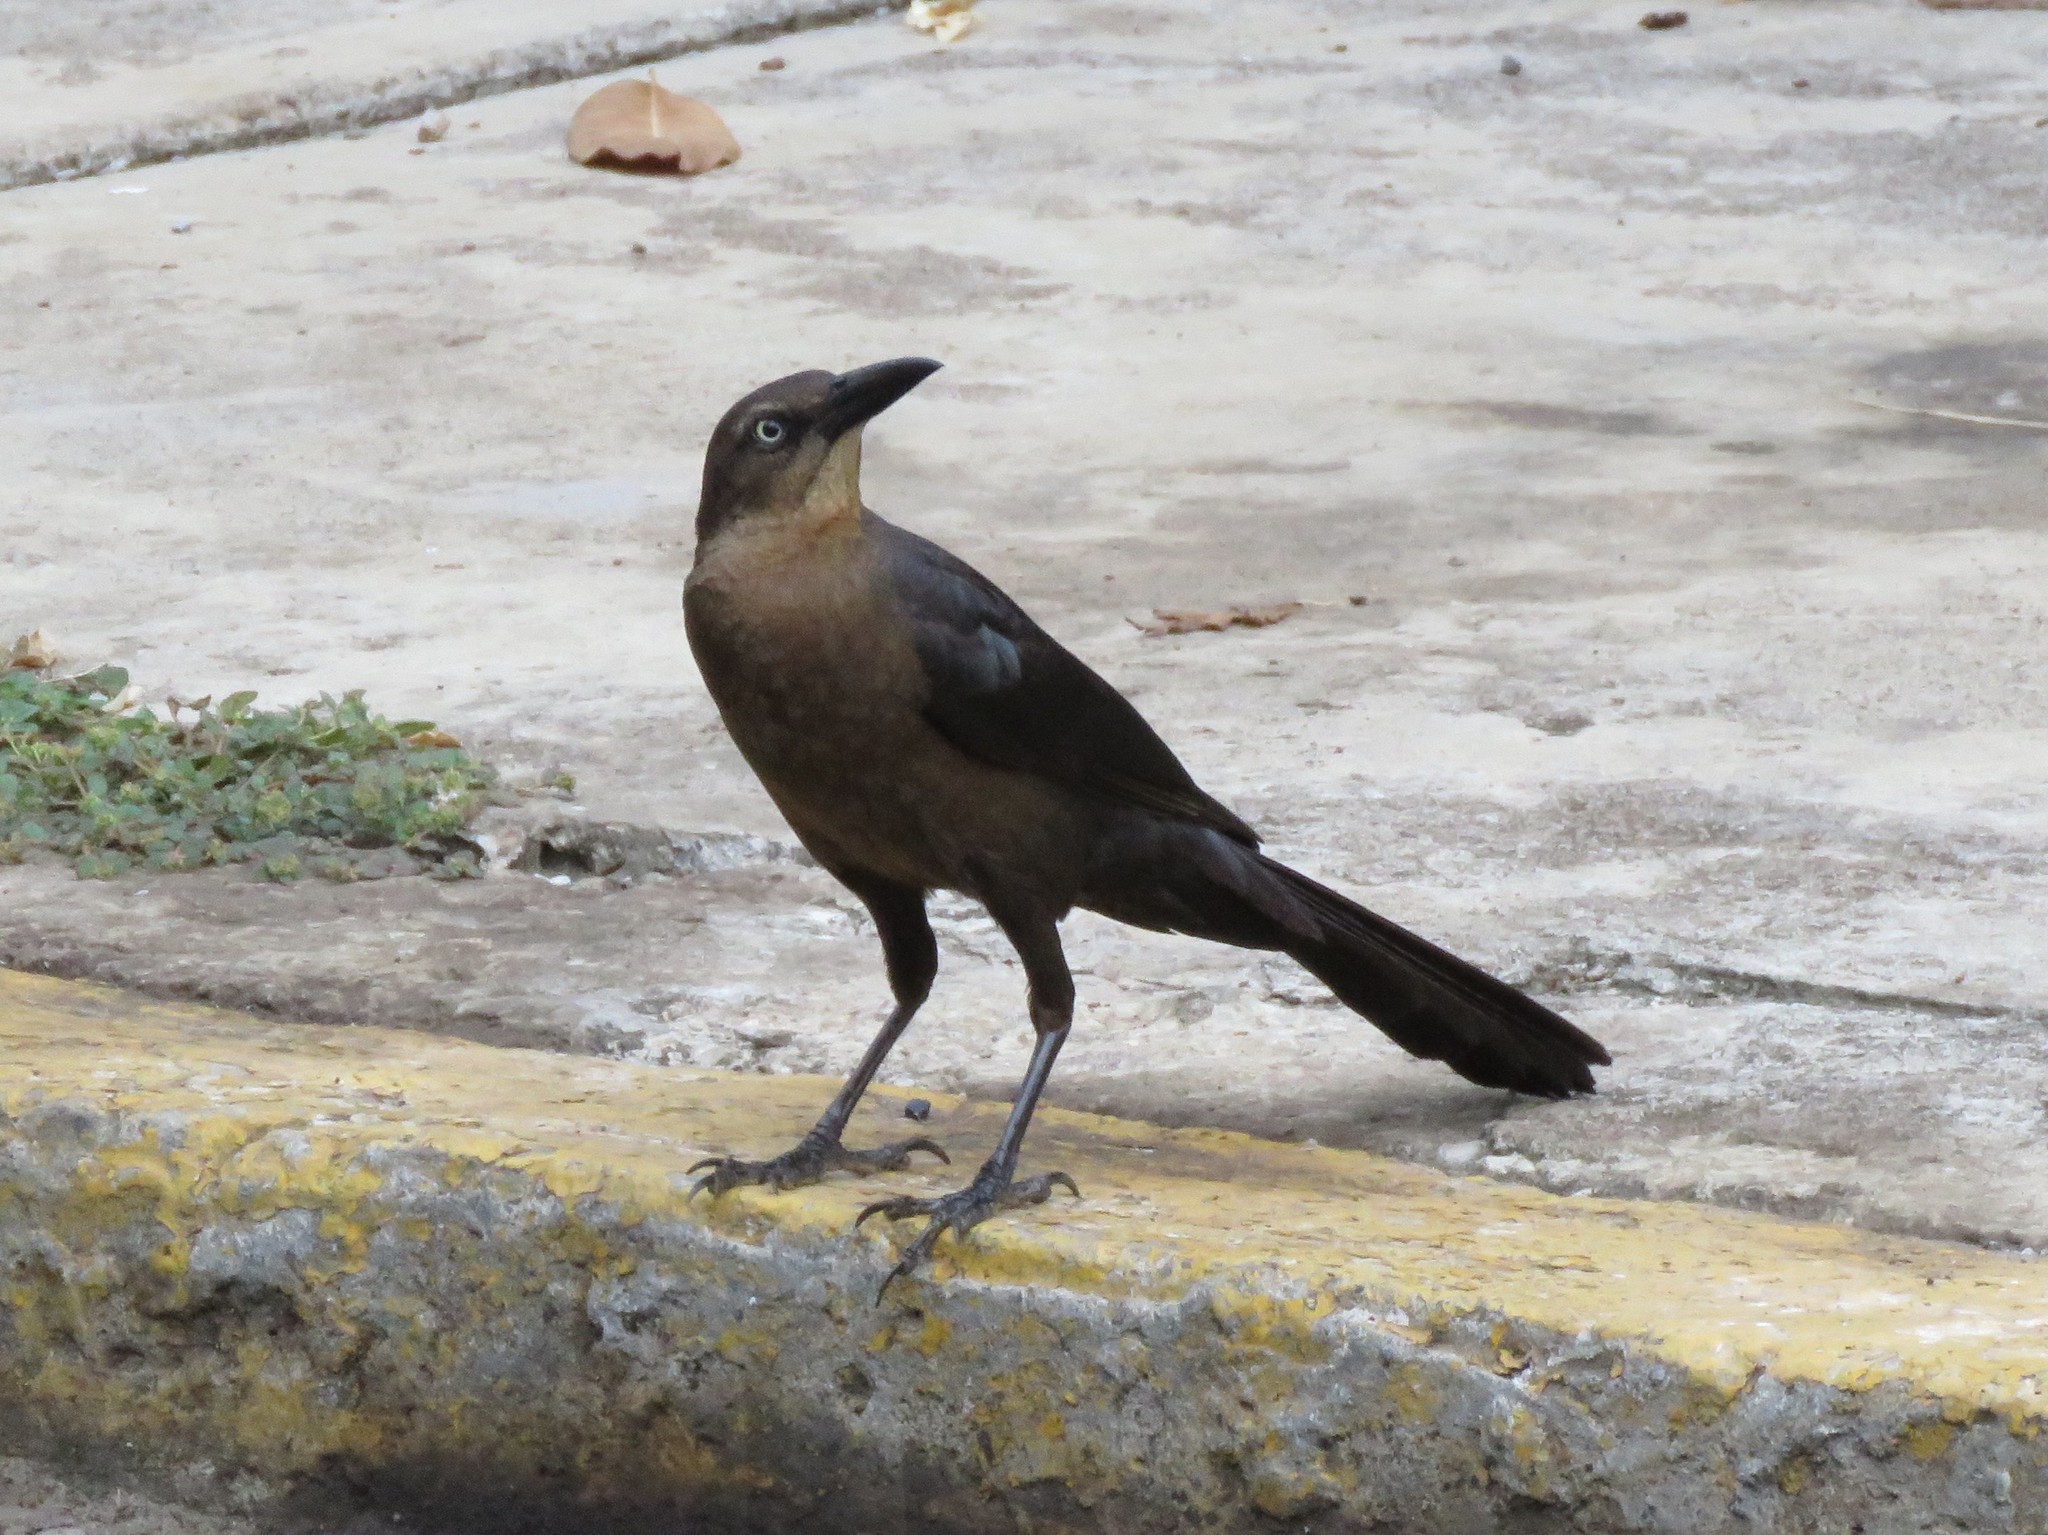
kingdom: Animalia
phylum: Chordata
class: Aves
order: Passeriformes
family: Icteridae
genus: Quiscalus
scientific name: Quiscalus mexicanus
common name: Great-tailed grackle
